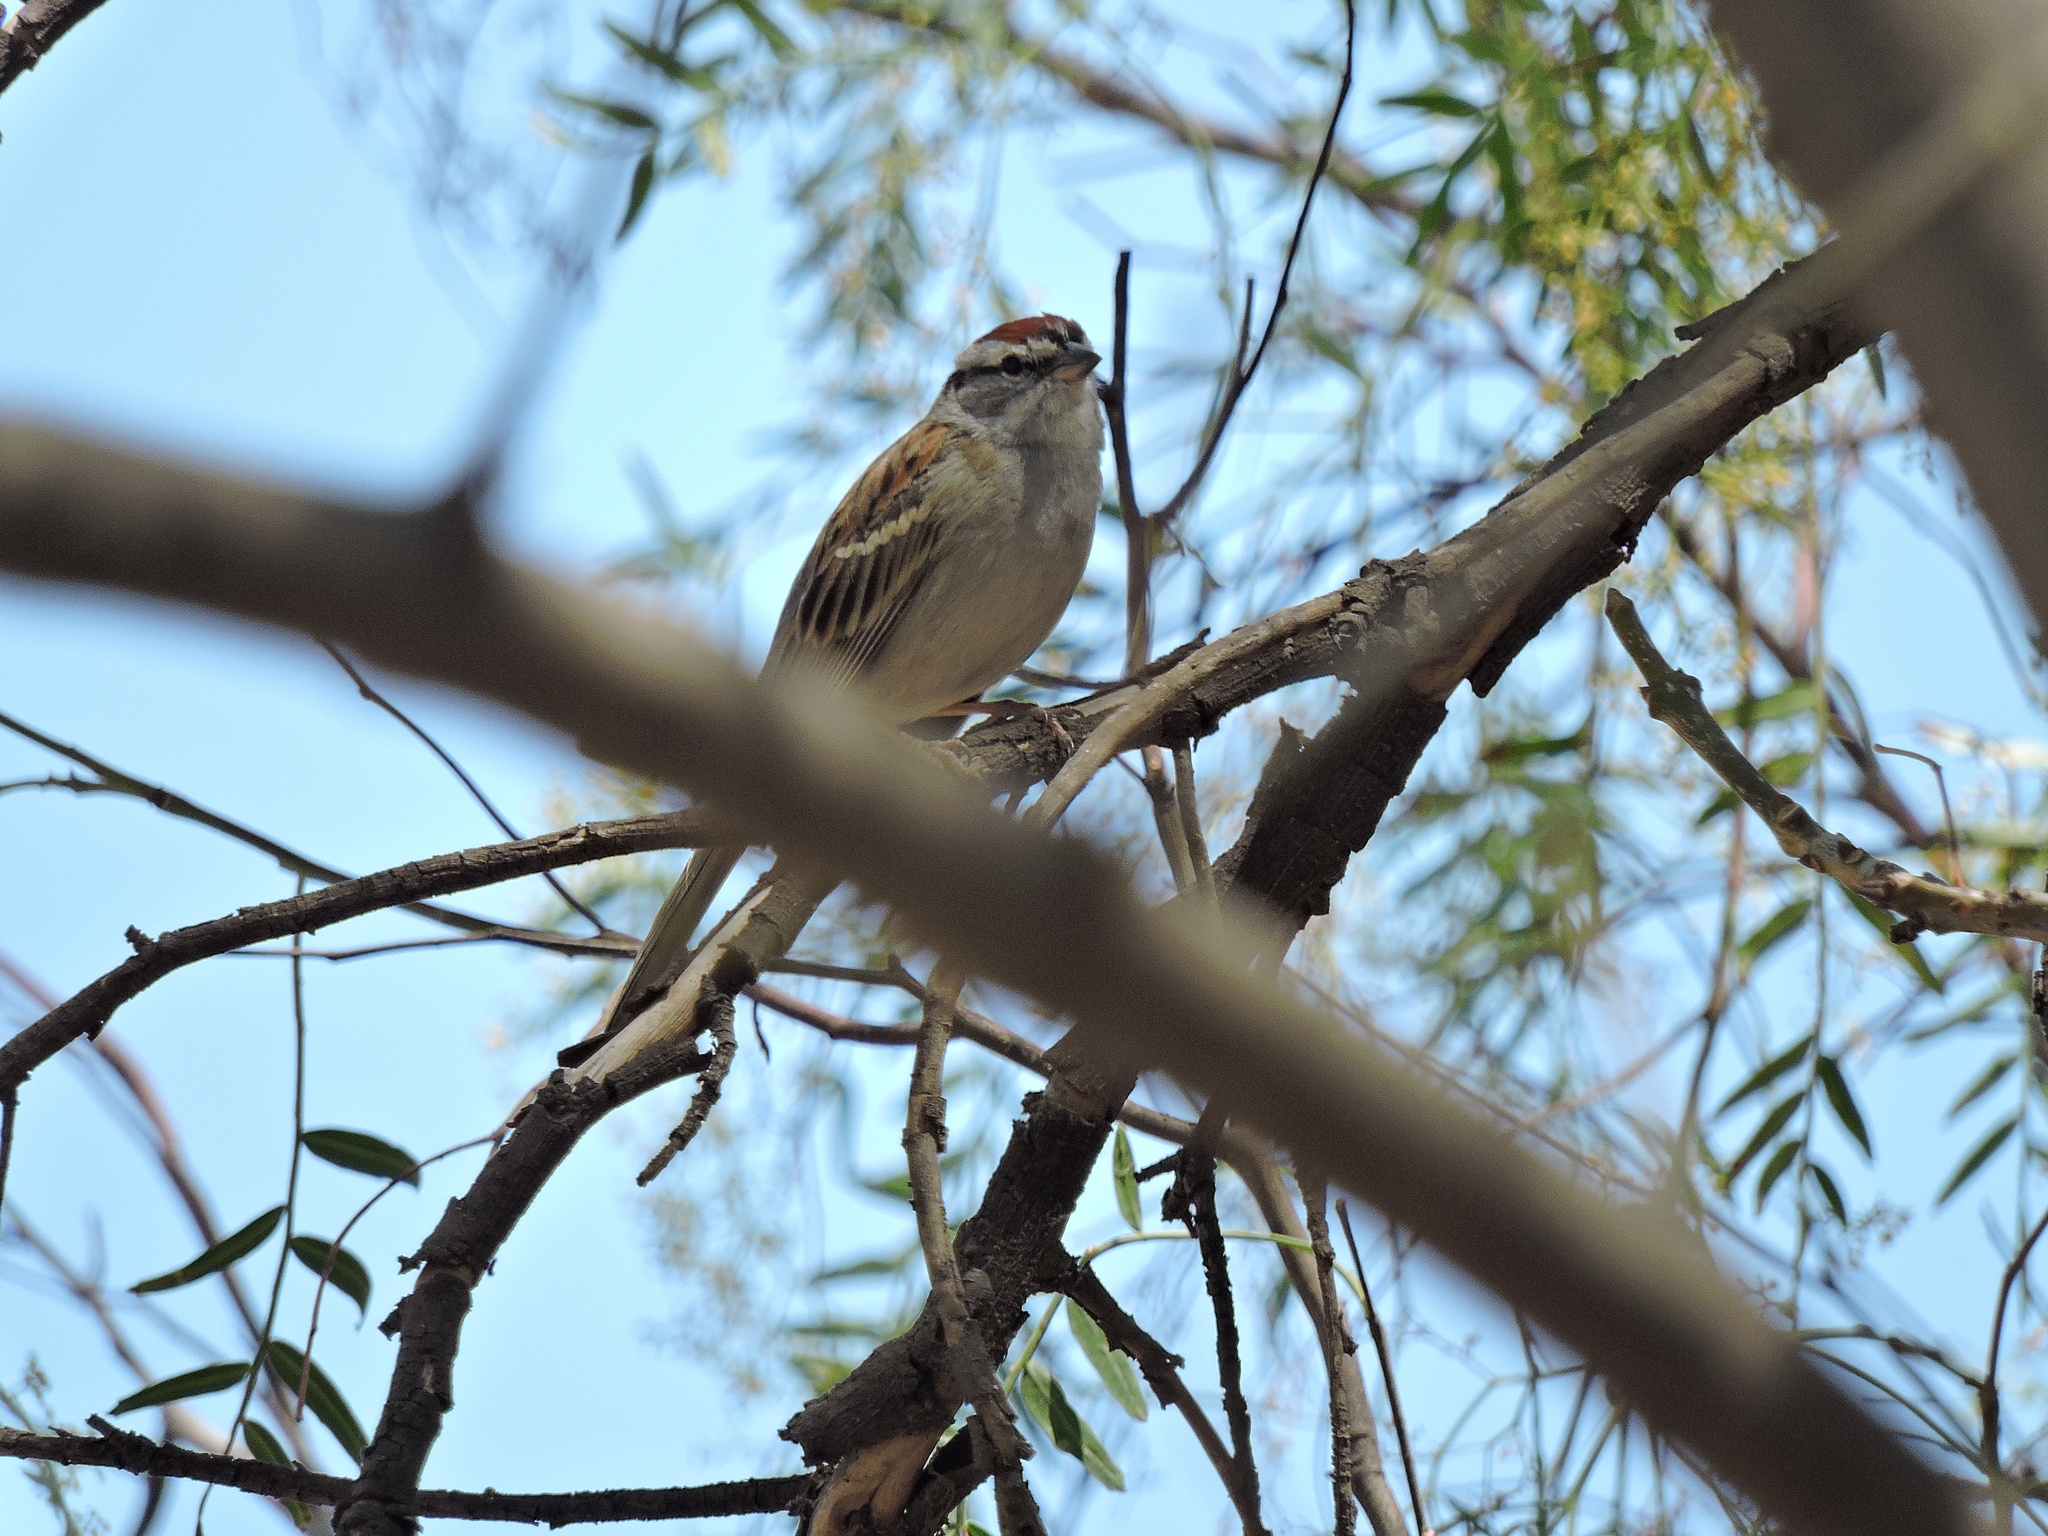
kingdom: Animalia
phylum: Chordata
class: Aves
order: Passeriformes
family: Passerellidae
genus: Spizella
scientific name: Spizella passerina
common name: Chipping sparrow
